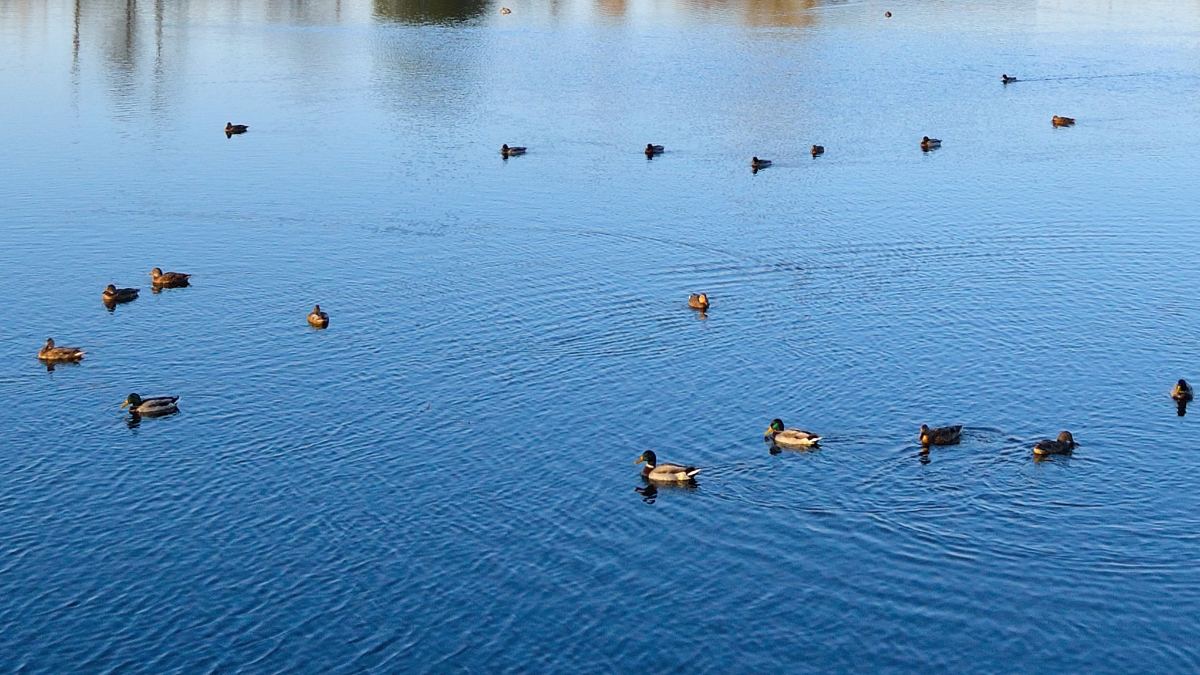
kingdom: Animalia
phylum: Chordata
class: Aves
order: Anseriformes
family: Anatidae
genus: Anas
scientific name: Anas platyrhynchos
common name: Mallard
